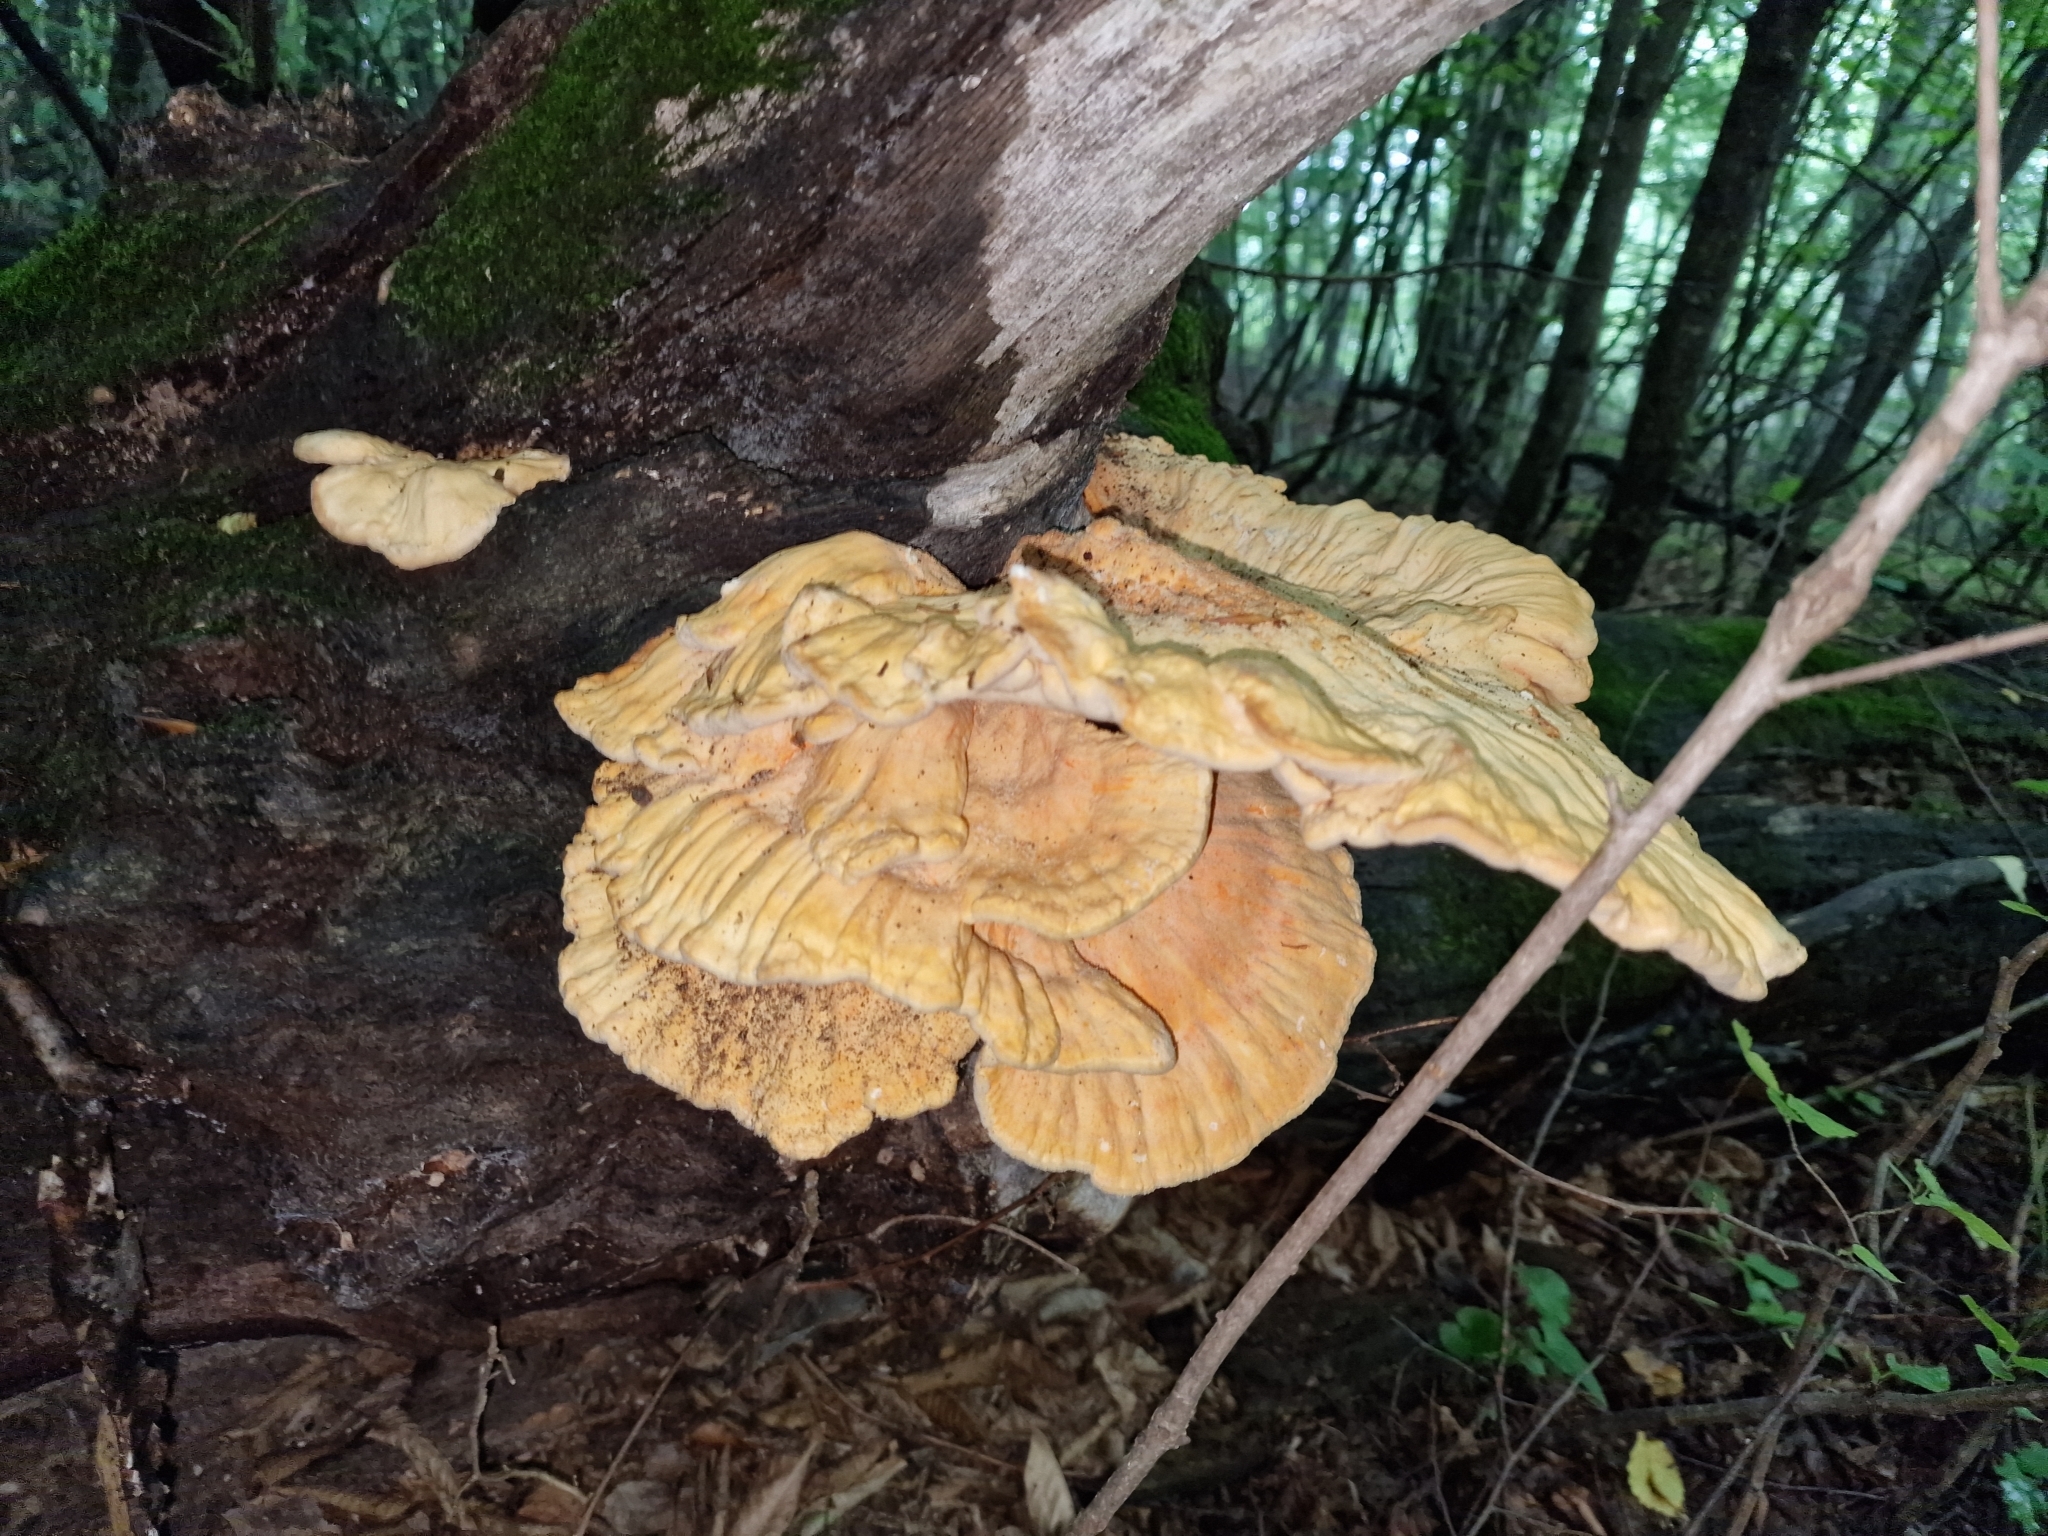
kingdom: Fungi
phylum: Basidiomycota
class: Agaricomycetes
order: Polyporales
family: Laetiporaceae
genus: Laetiporus
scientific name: Laetiporus sulphureus
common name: Chicken of the woods
